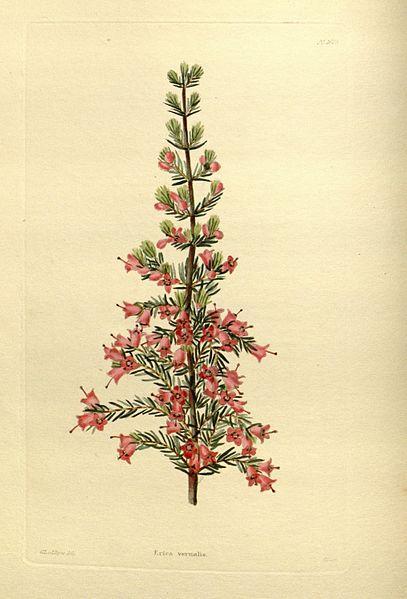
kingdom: Plantae
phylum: Tracheophyta
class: Magnoliopsida
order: Ericales
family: Ericaceae
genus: Erica
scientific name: Erica pyramidalis
